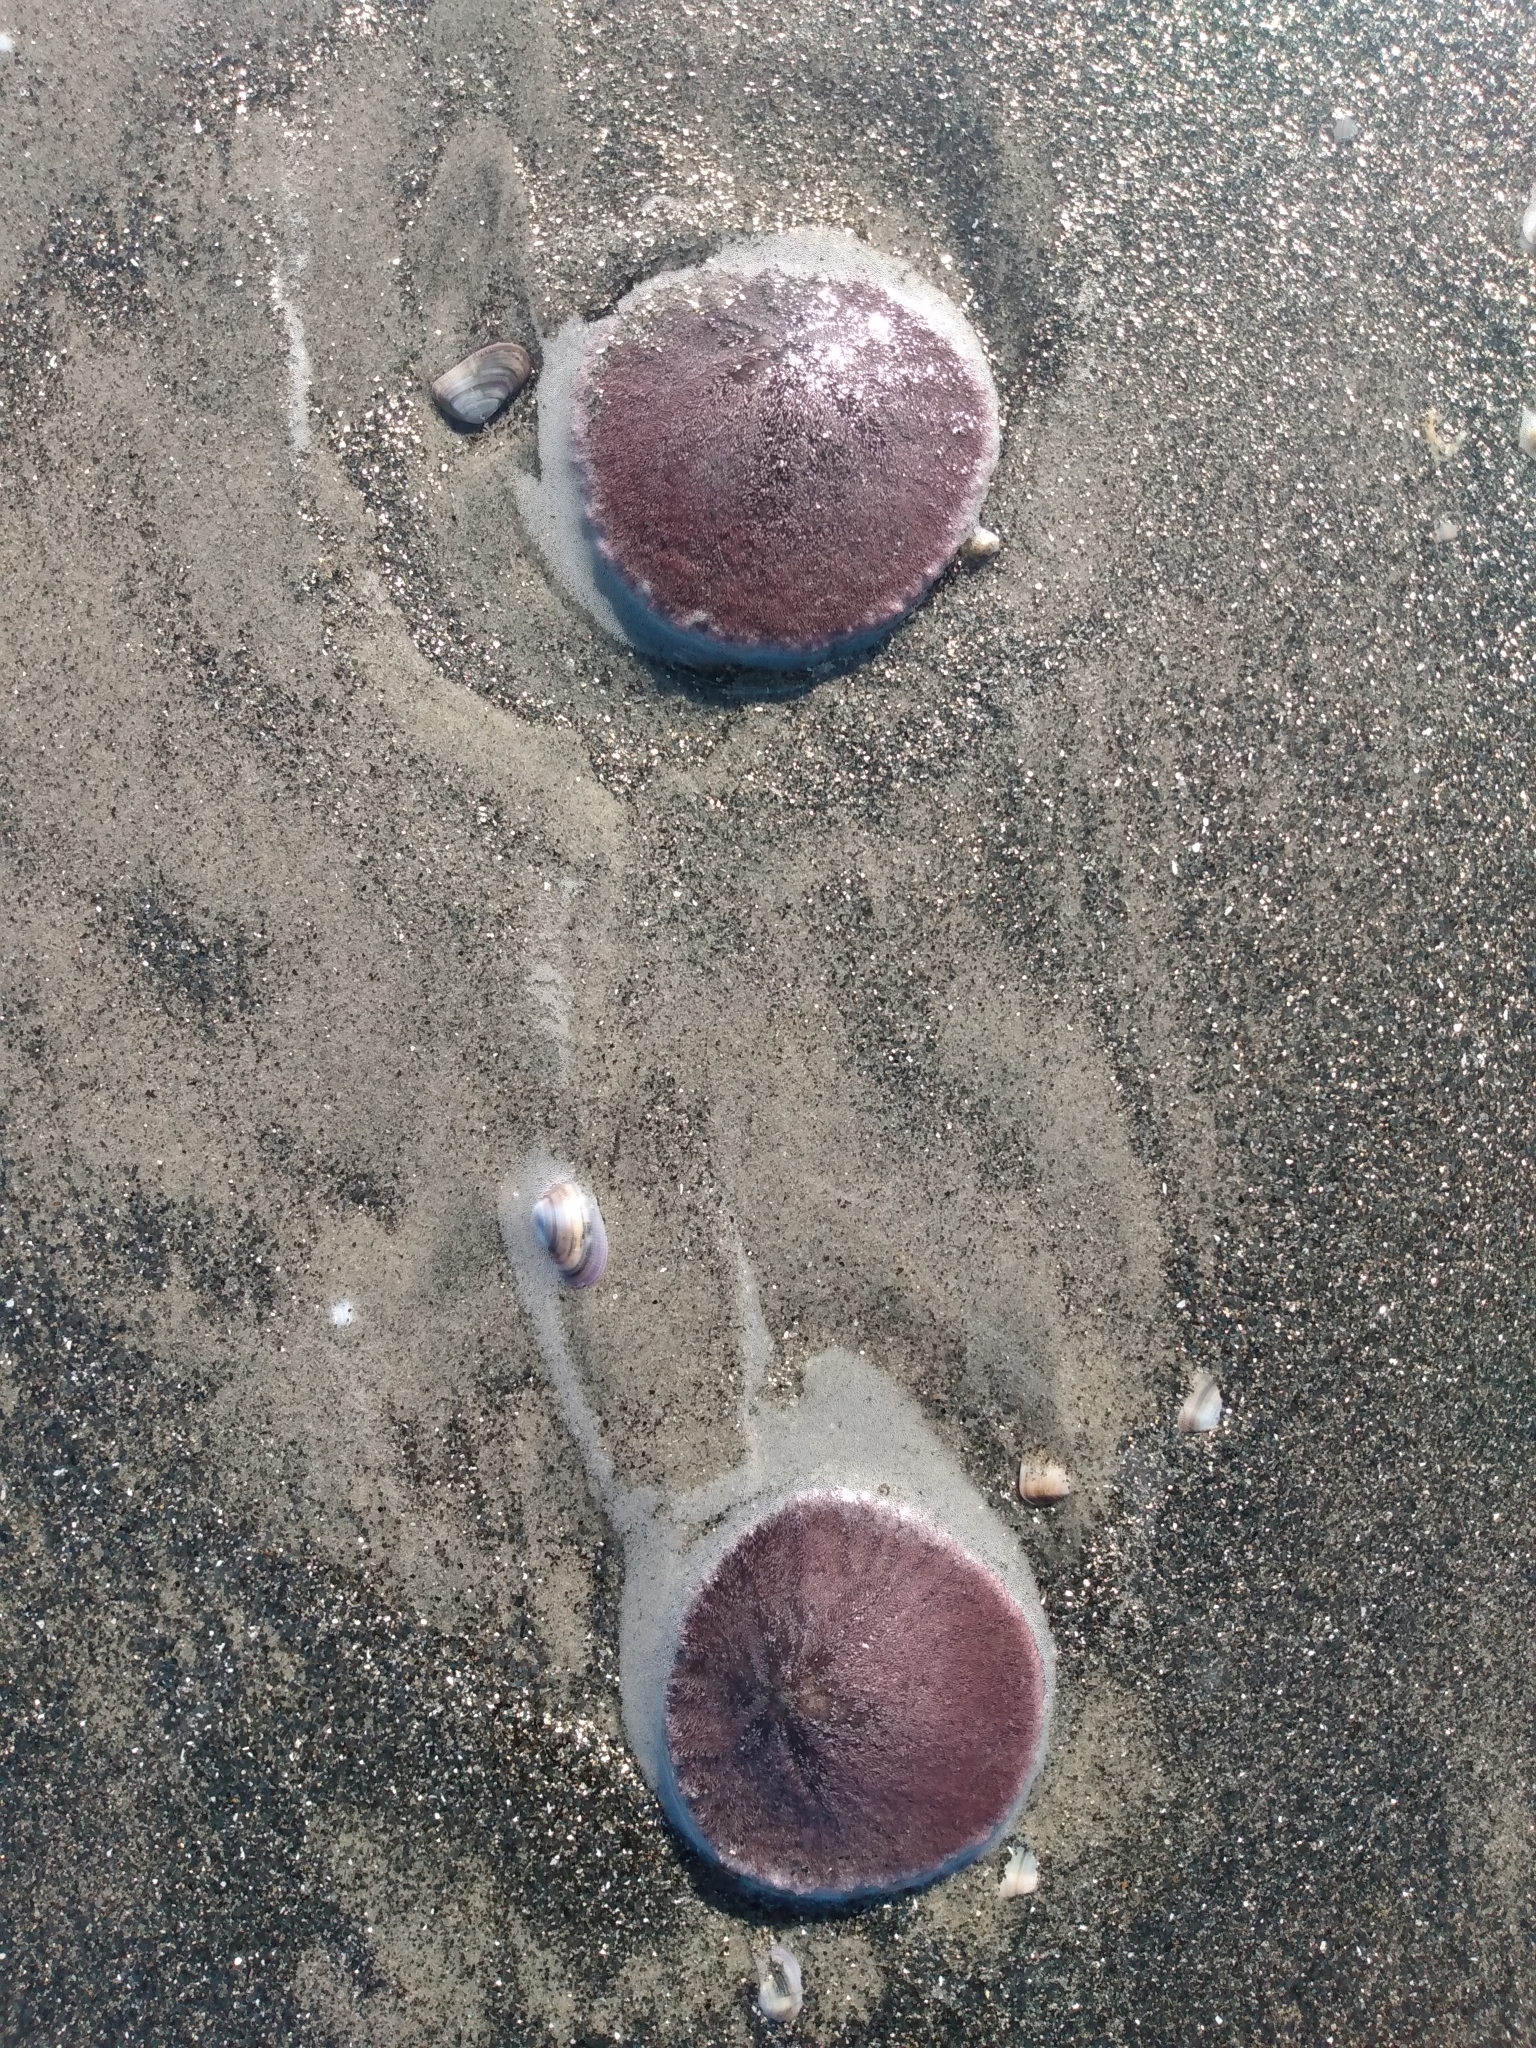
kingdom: Animalia
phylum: Echinodermata
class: Echinoidea
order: Echinolampadacea
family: Dendrasteridae
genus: Dendraster
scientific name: Dendraster excentricus
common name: Eccentric sand dollar sea urchin
